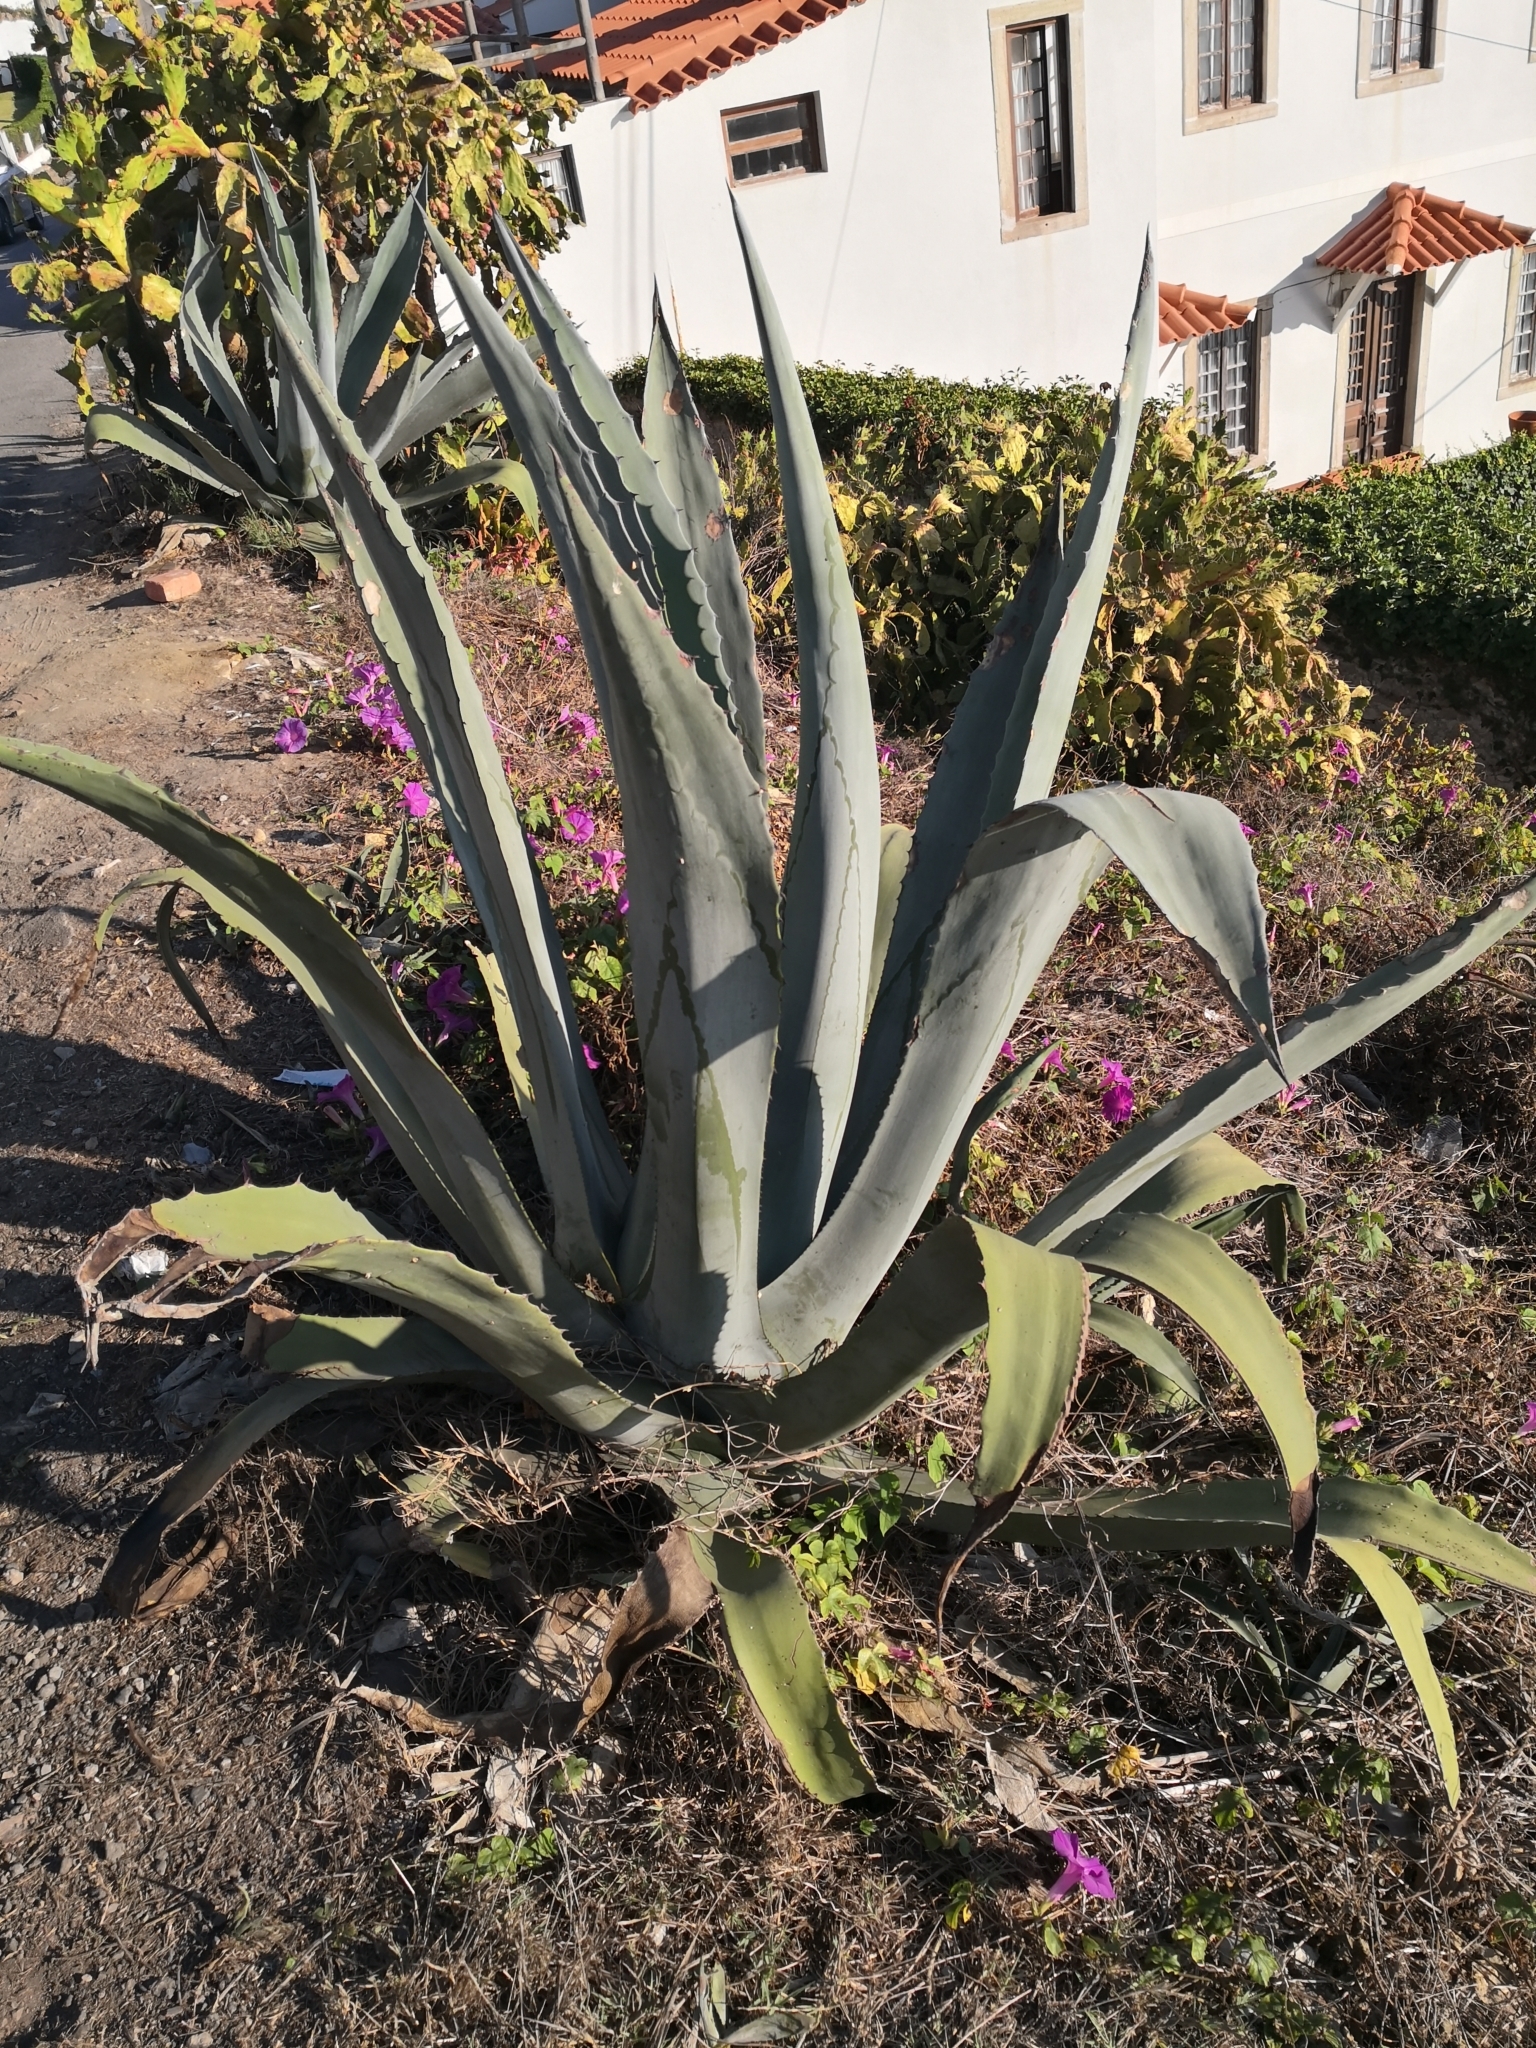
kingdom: Plantae
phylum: Tracheophyta
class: Liliopsida
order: Asparagales
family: Asparagaceae
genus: Agave
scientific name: Agave americana
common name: Centuryplant
